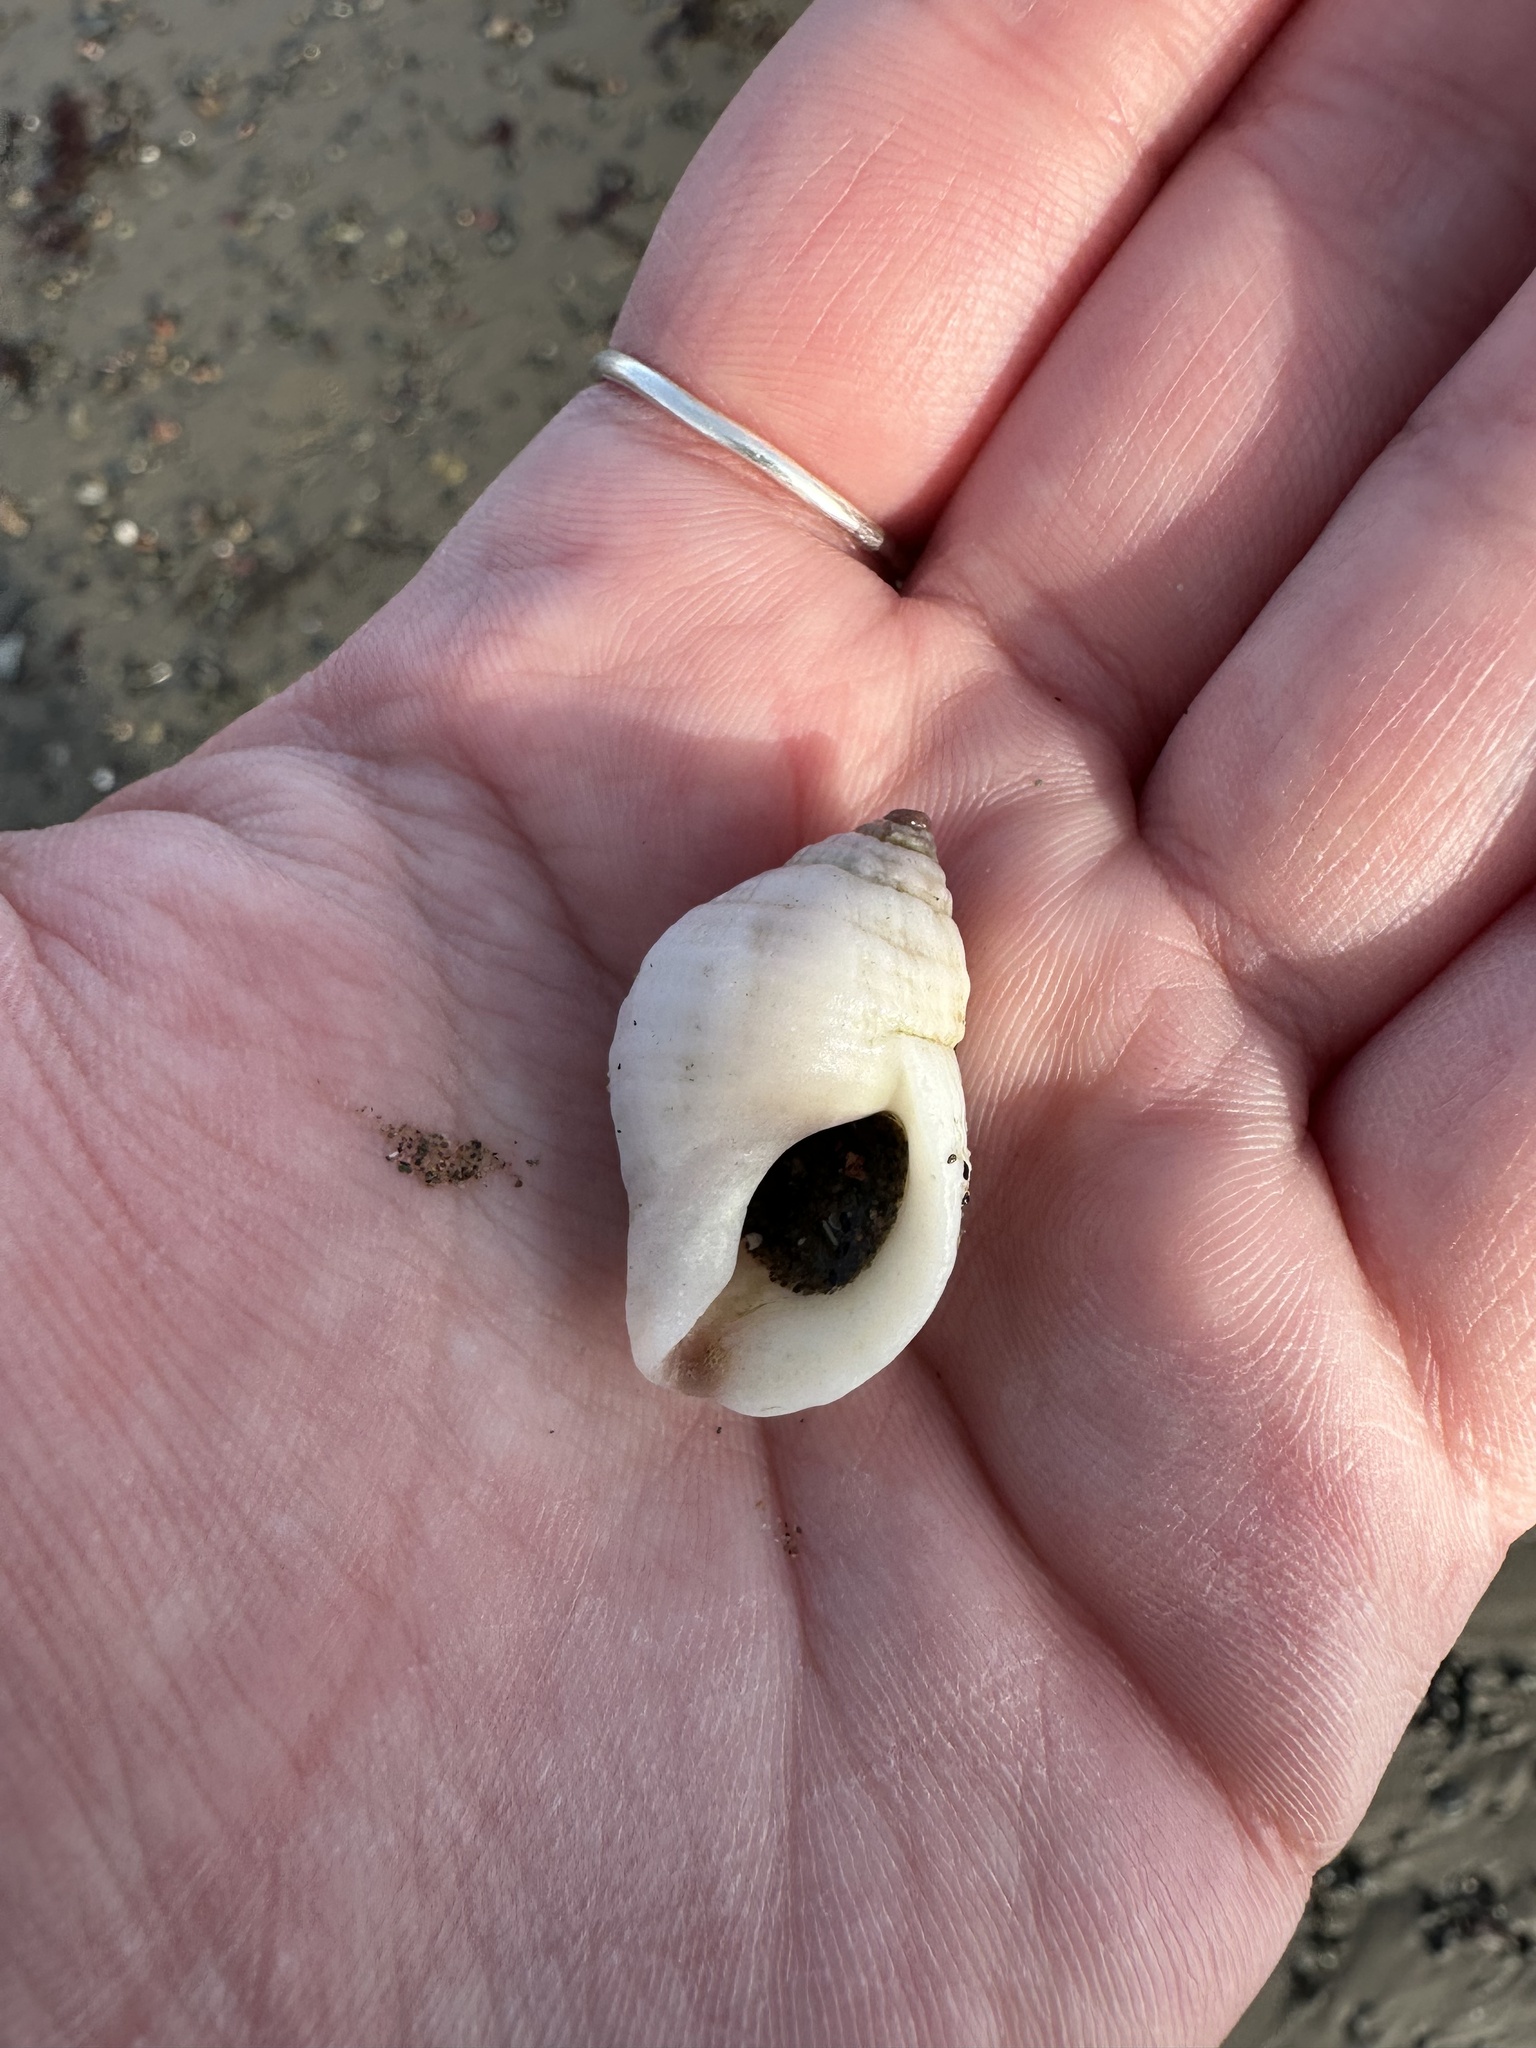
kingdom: Animalia
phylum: Mollusca
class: Gastropoda
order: Neogastropoda
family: Muricidae
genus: Nucella
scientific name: Nucella lapillus
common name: Dog whelk
